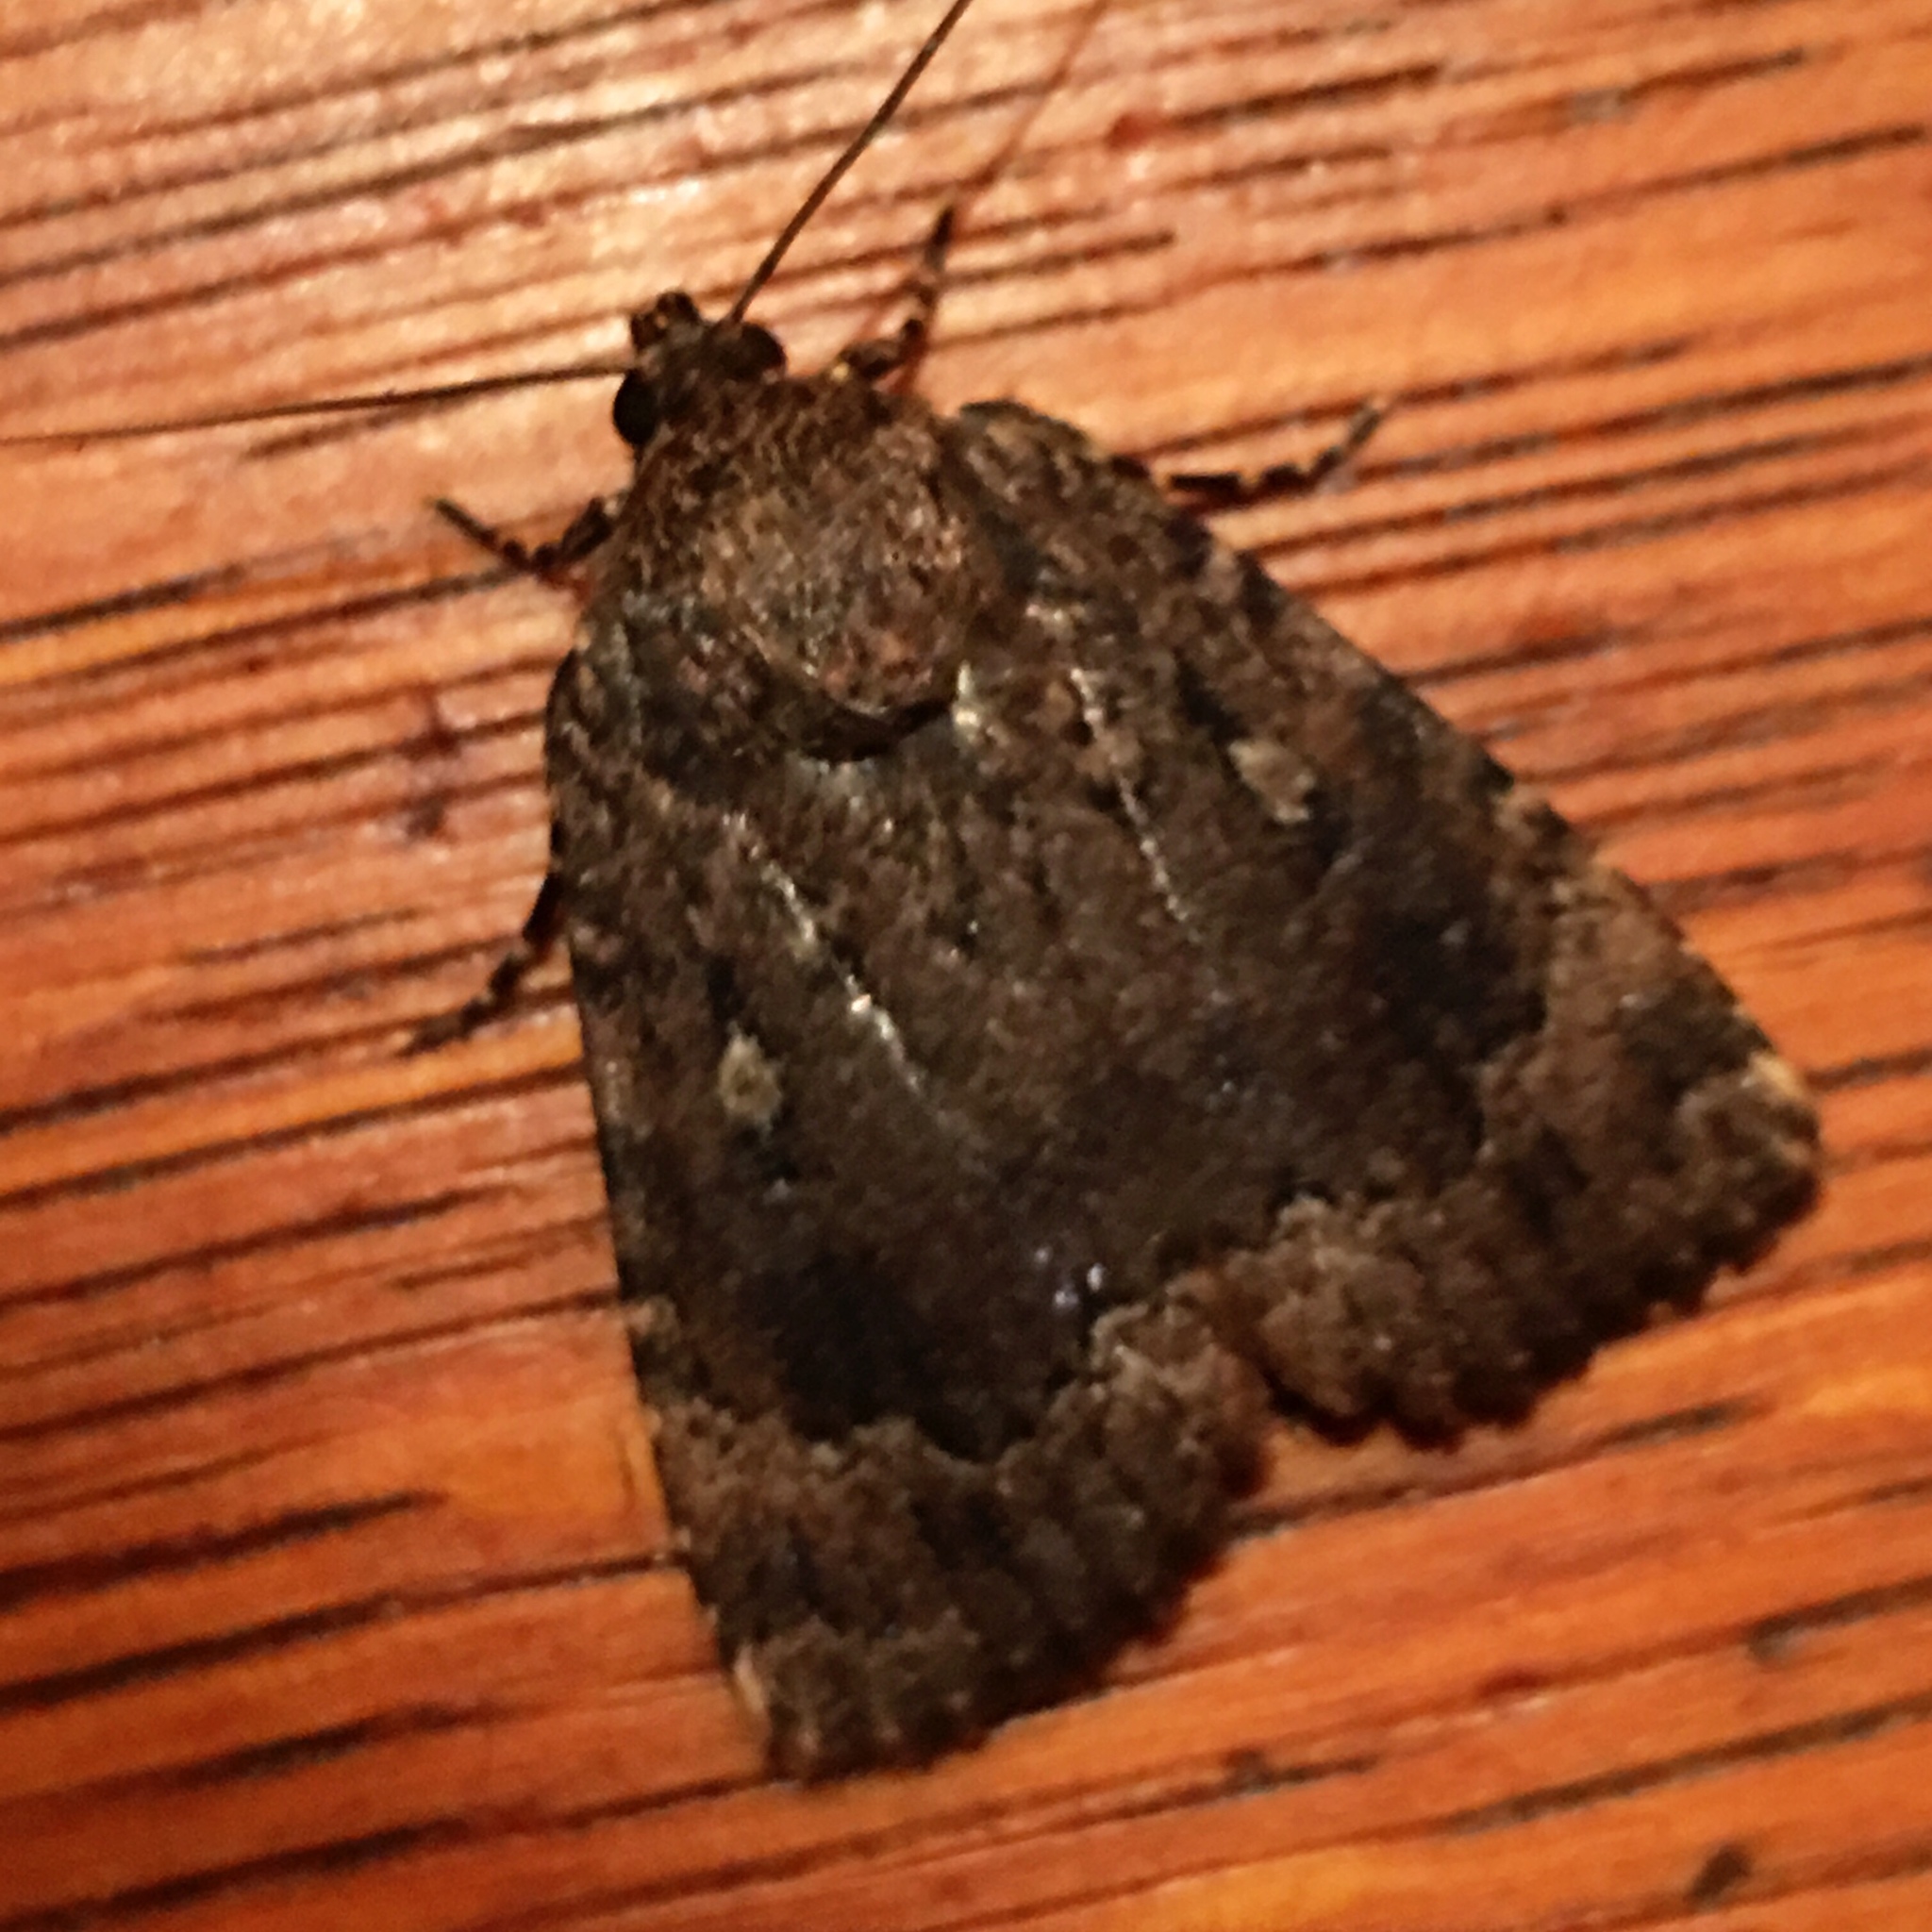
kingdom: Animalia
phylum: Arthropoda
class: Insecta
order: Lepidoptera
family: Noctuidae
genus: Amphipyra
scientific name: Amphipyra pyramidoides
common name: American copper underwing
